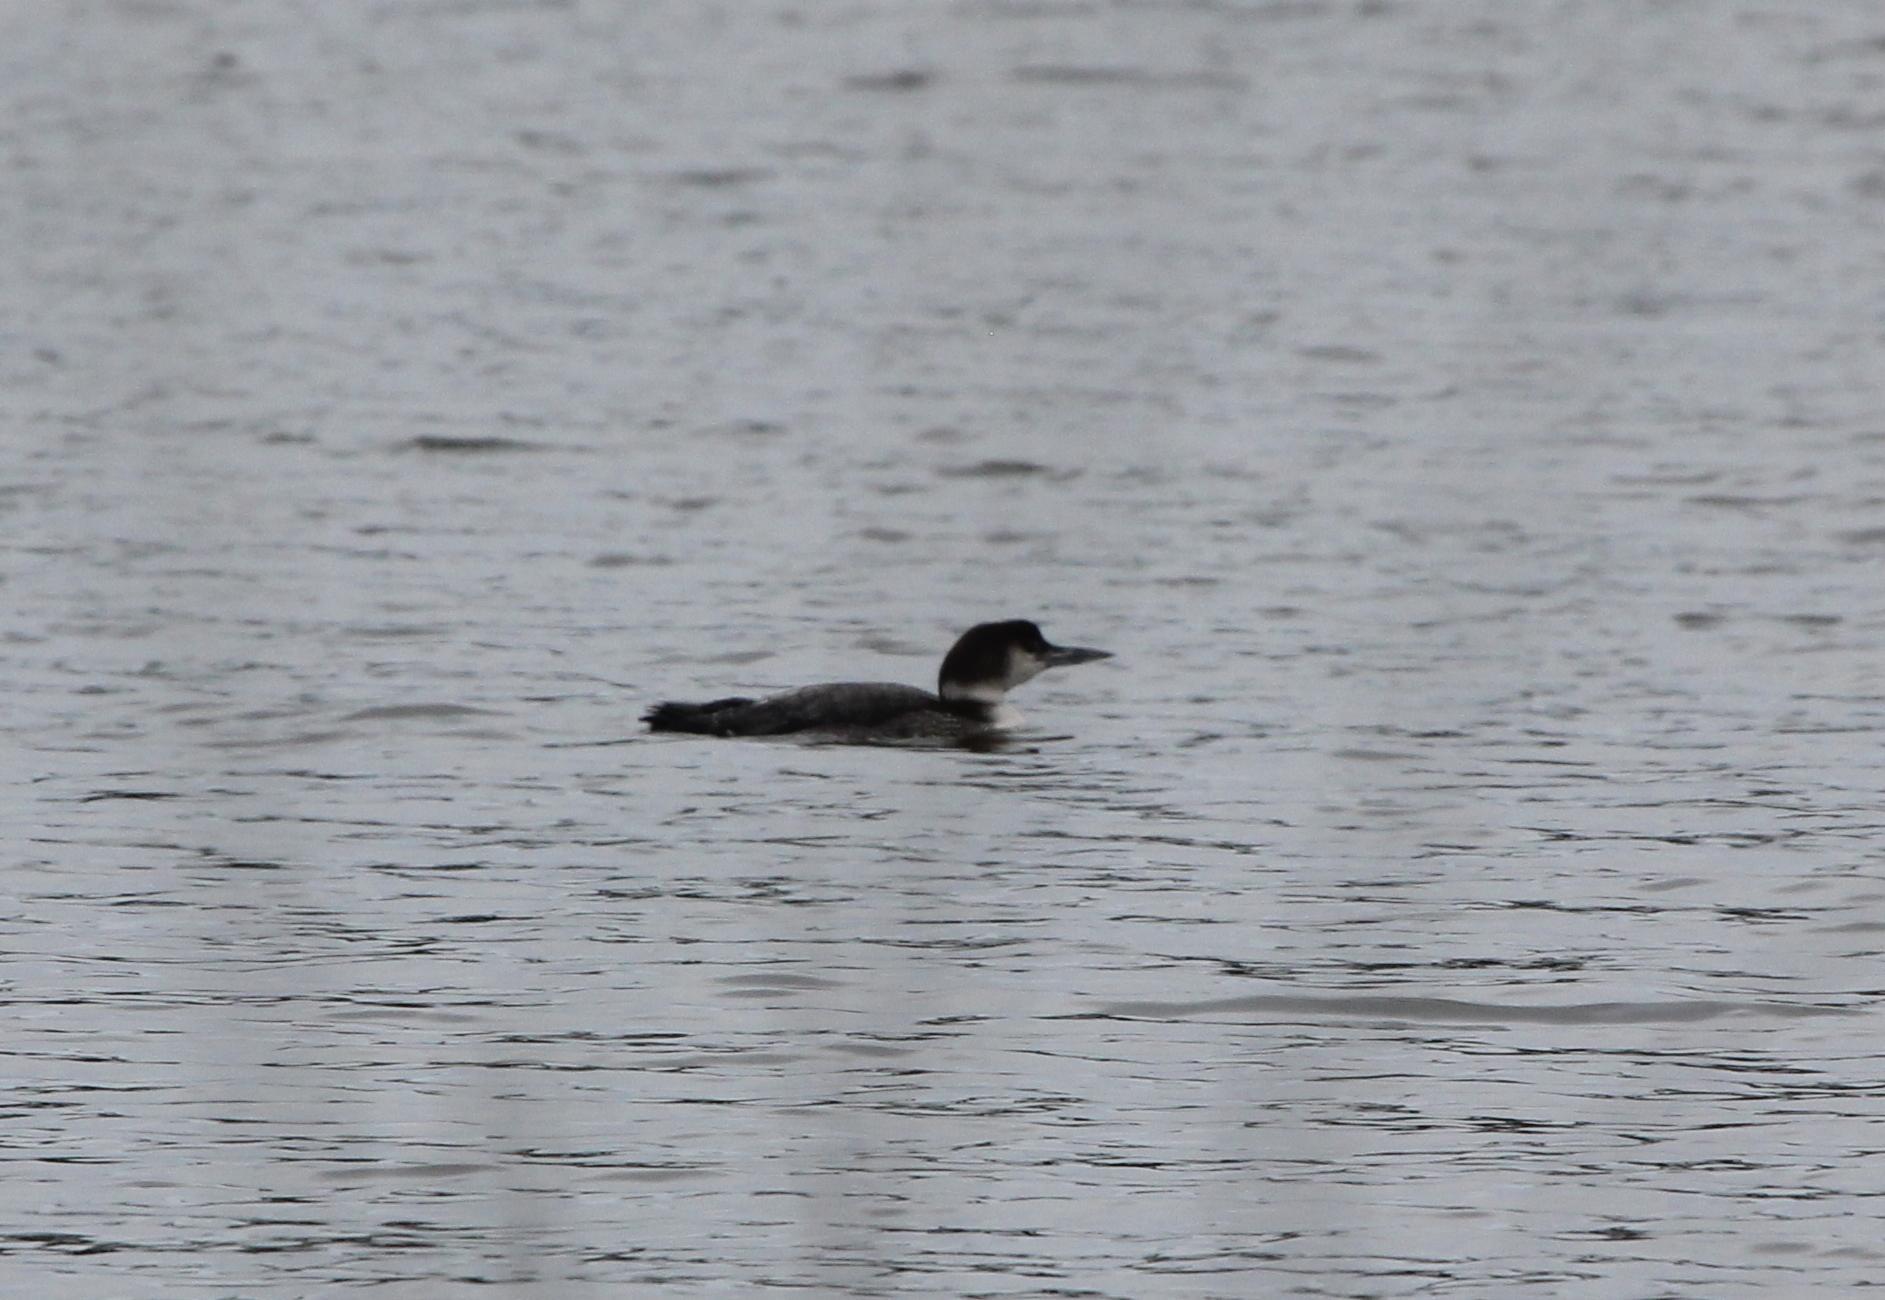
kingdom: Animalia
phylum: Chordata
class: Aves
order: Gaviiformes
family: Gaviidae
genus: Gavia
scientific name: Gavia immer
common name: Common loon
